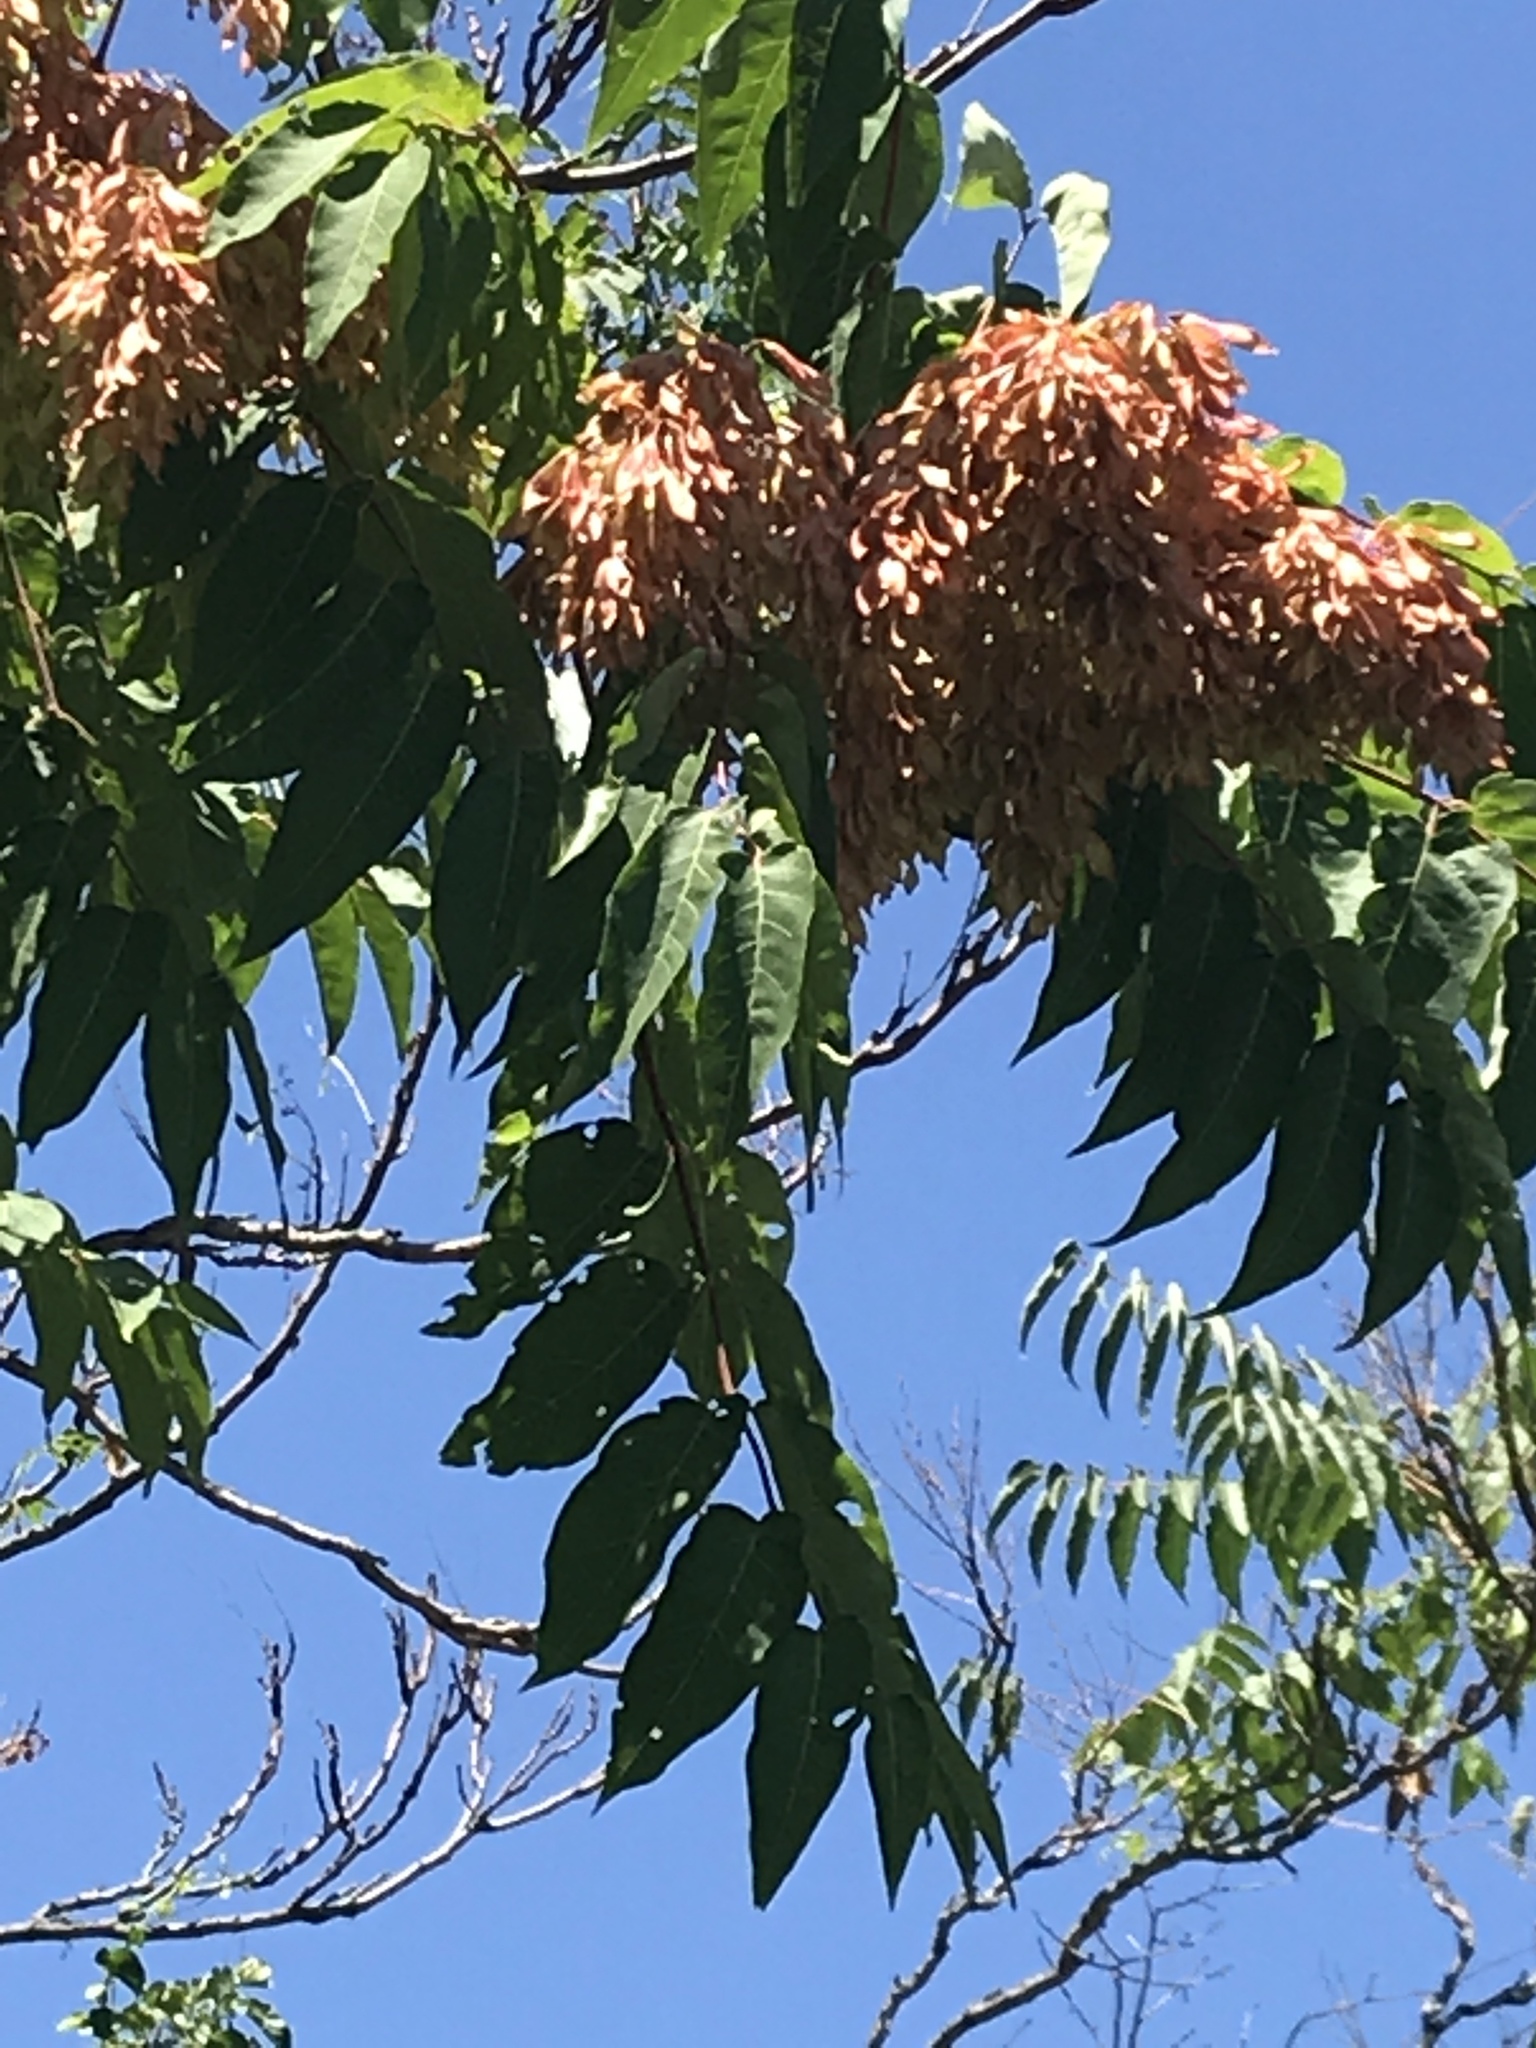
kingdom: Plantae
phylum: Tracheophyta
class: Magnoliopsida
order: Sapindales
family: Simaroubaceae
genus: Ailanthus
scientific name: Ailanthus altissima
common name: Tree-of-heaven
